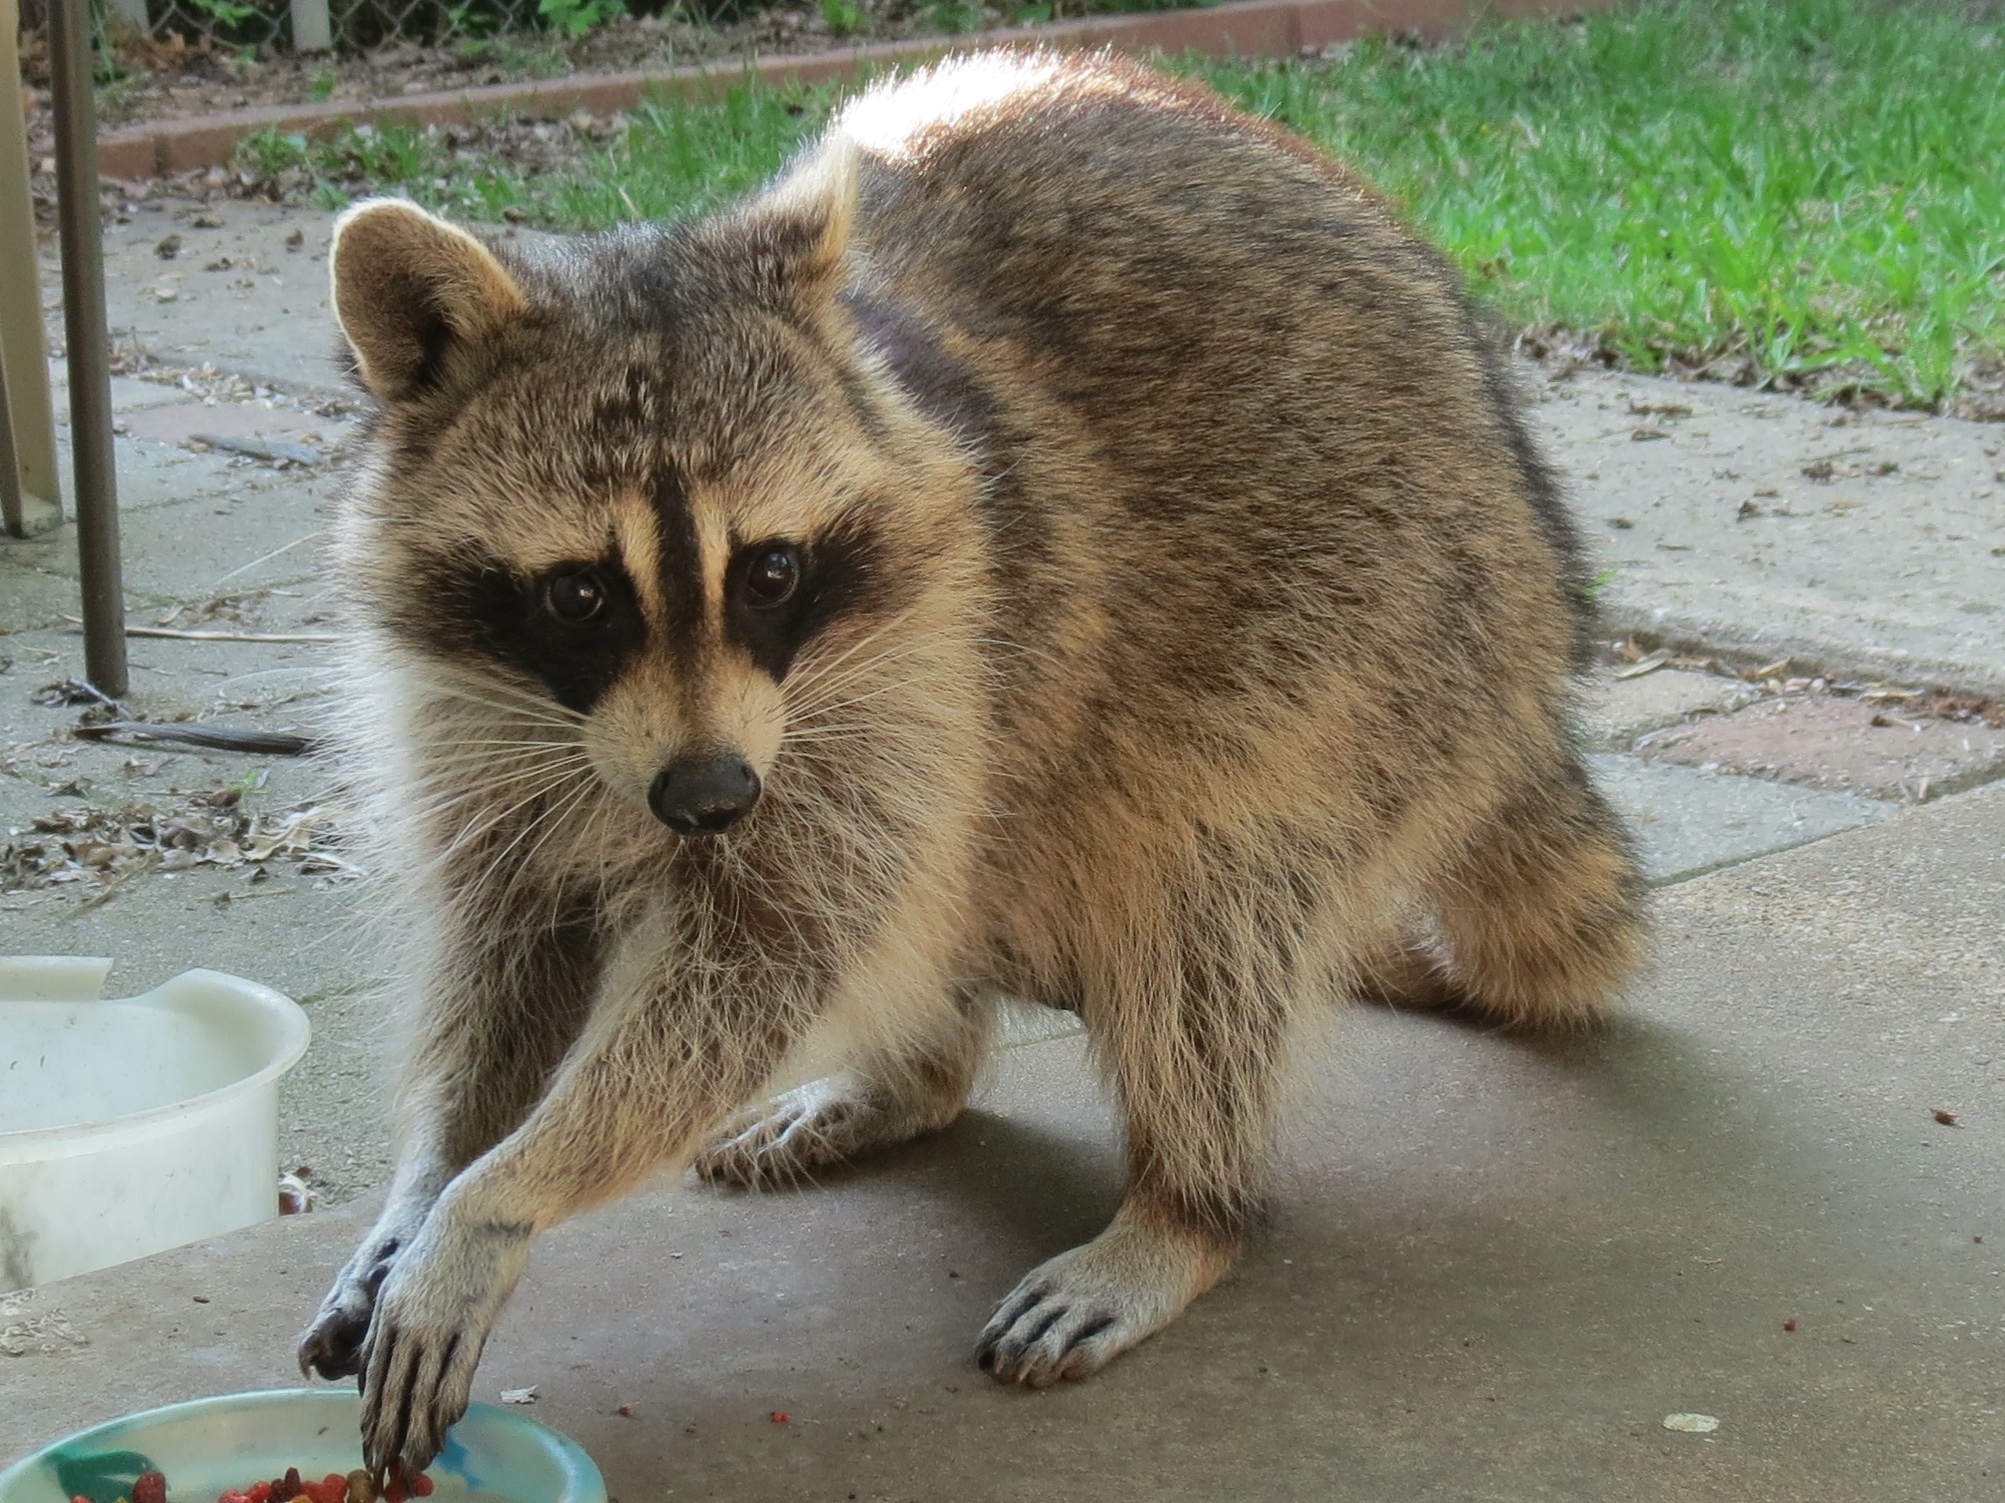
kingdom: Animalia
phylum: Chordata
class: Mammalia
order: Carnivora
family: Procyonidae
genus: Procyon
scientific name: Procyon lotor
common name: Raccoon
